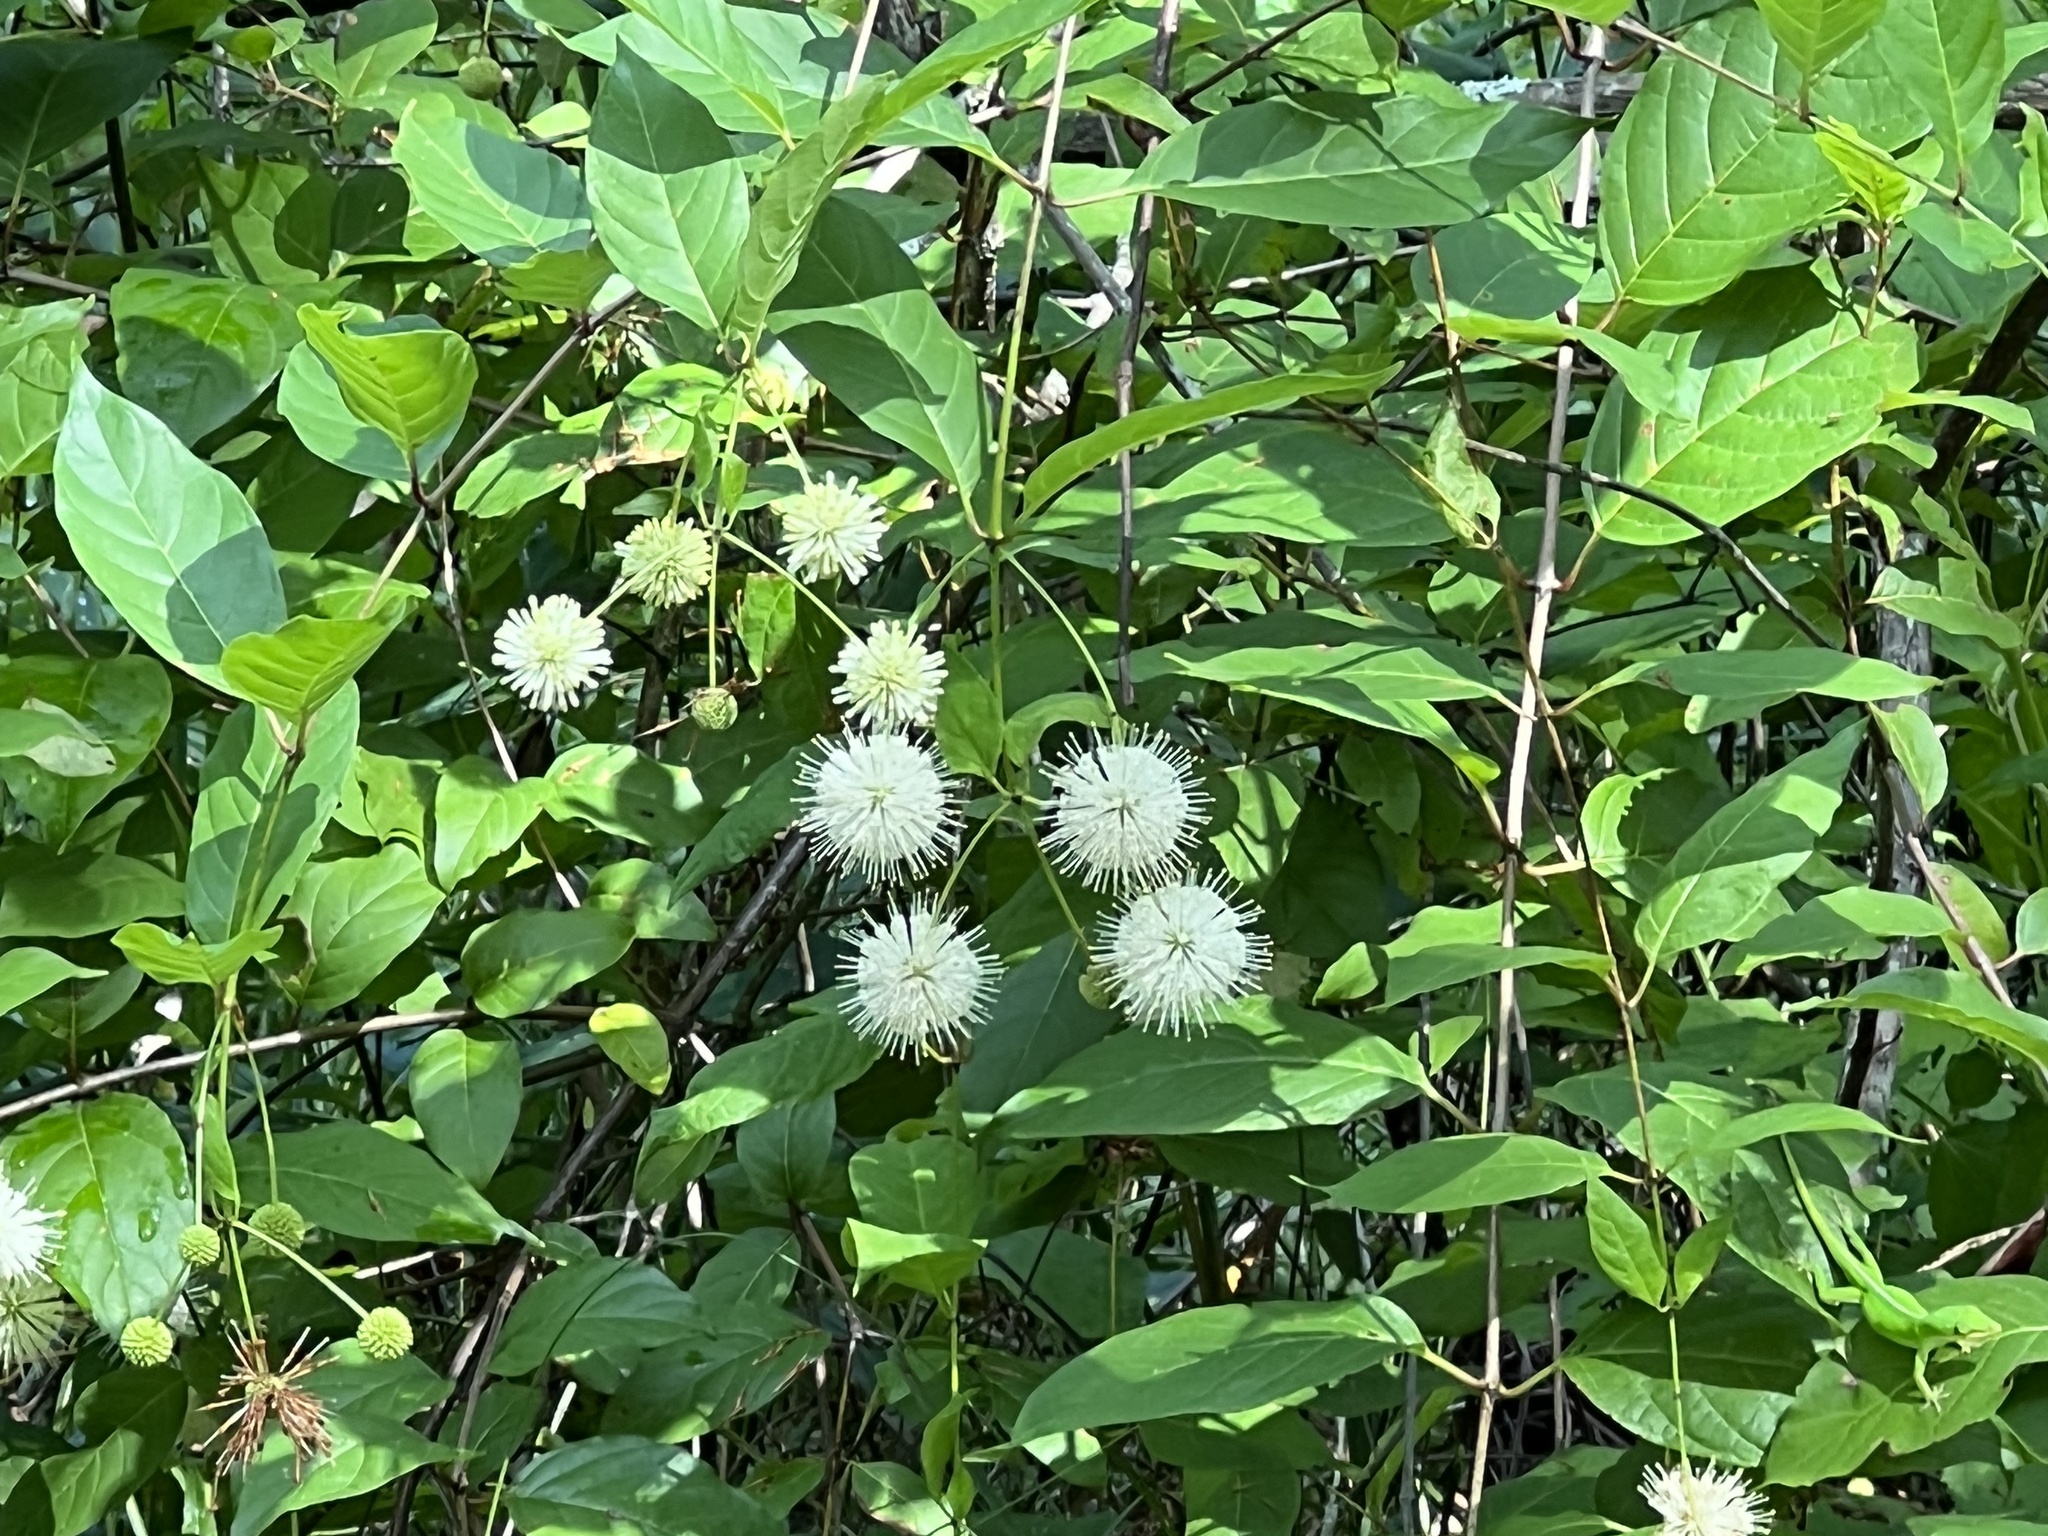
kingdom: Plantae
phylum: Tracheophyta
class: Magnoliopsida
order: Gentianales
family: Rubiaceae
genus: Cephalanthus
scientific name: Cephalanthus occidentalis
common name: Button-willow
